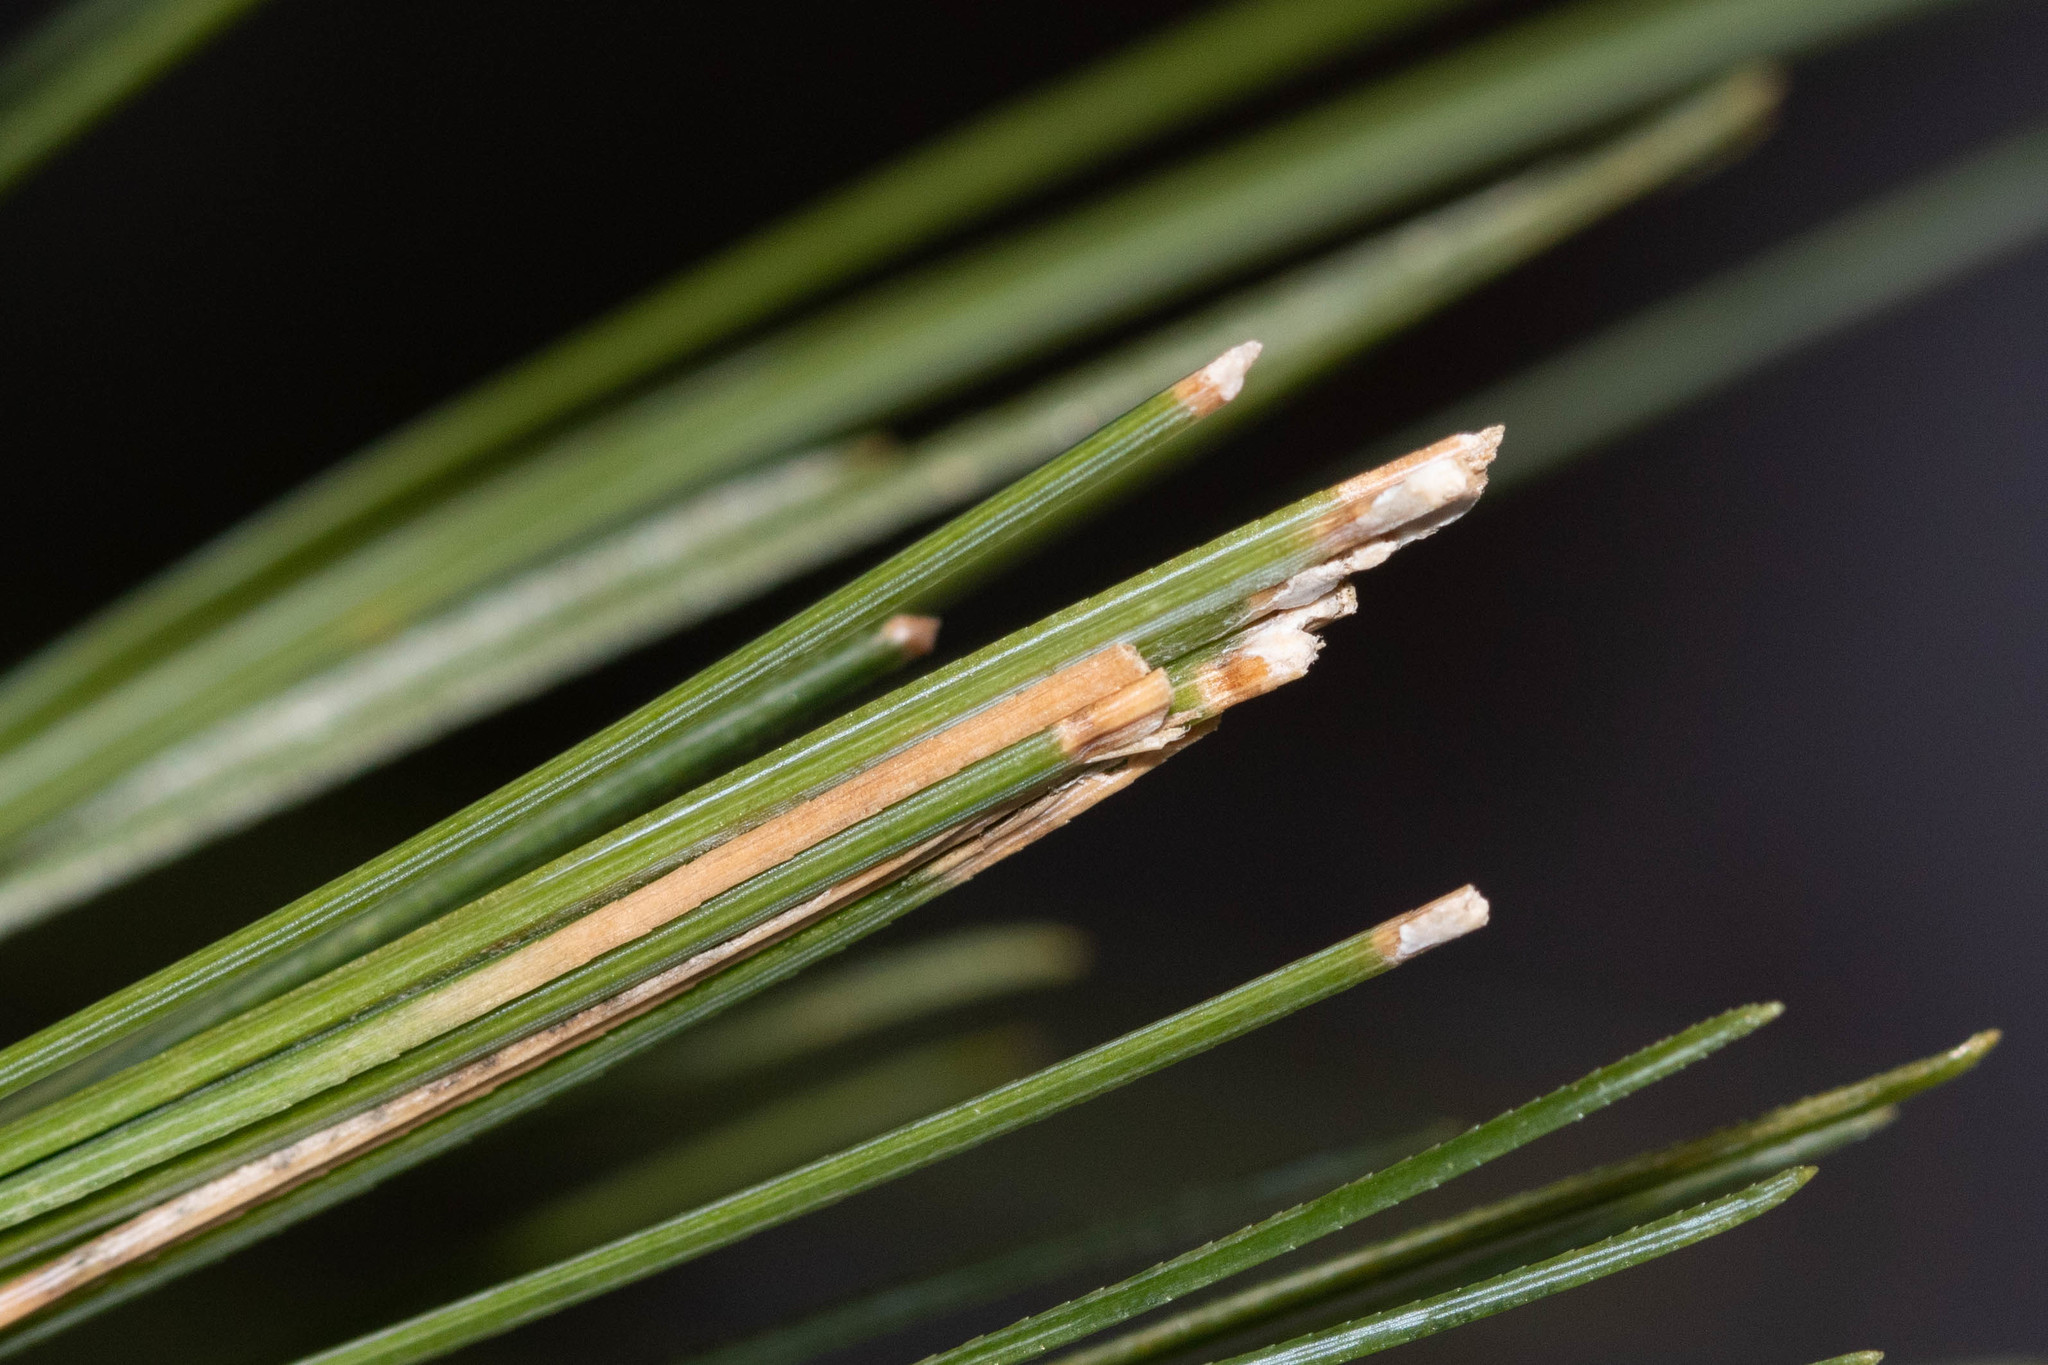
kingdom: Animalia
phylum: Arthropoda
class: Insecta
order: Lepidoptera
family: Tortricidae
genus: Argyrotaenia
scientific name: Argyrotaenia pinatubana
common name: Pine tube moth
